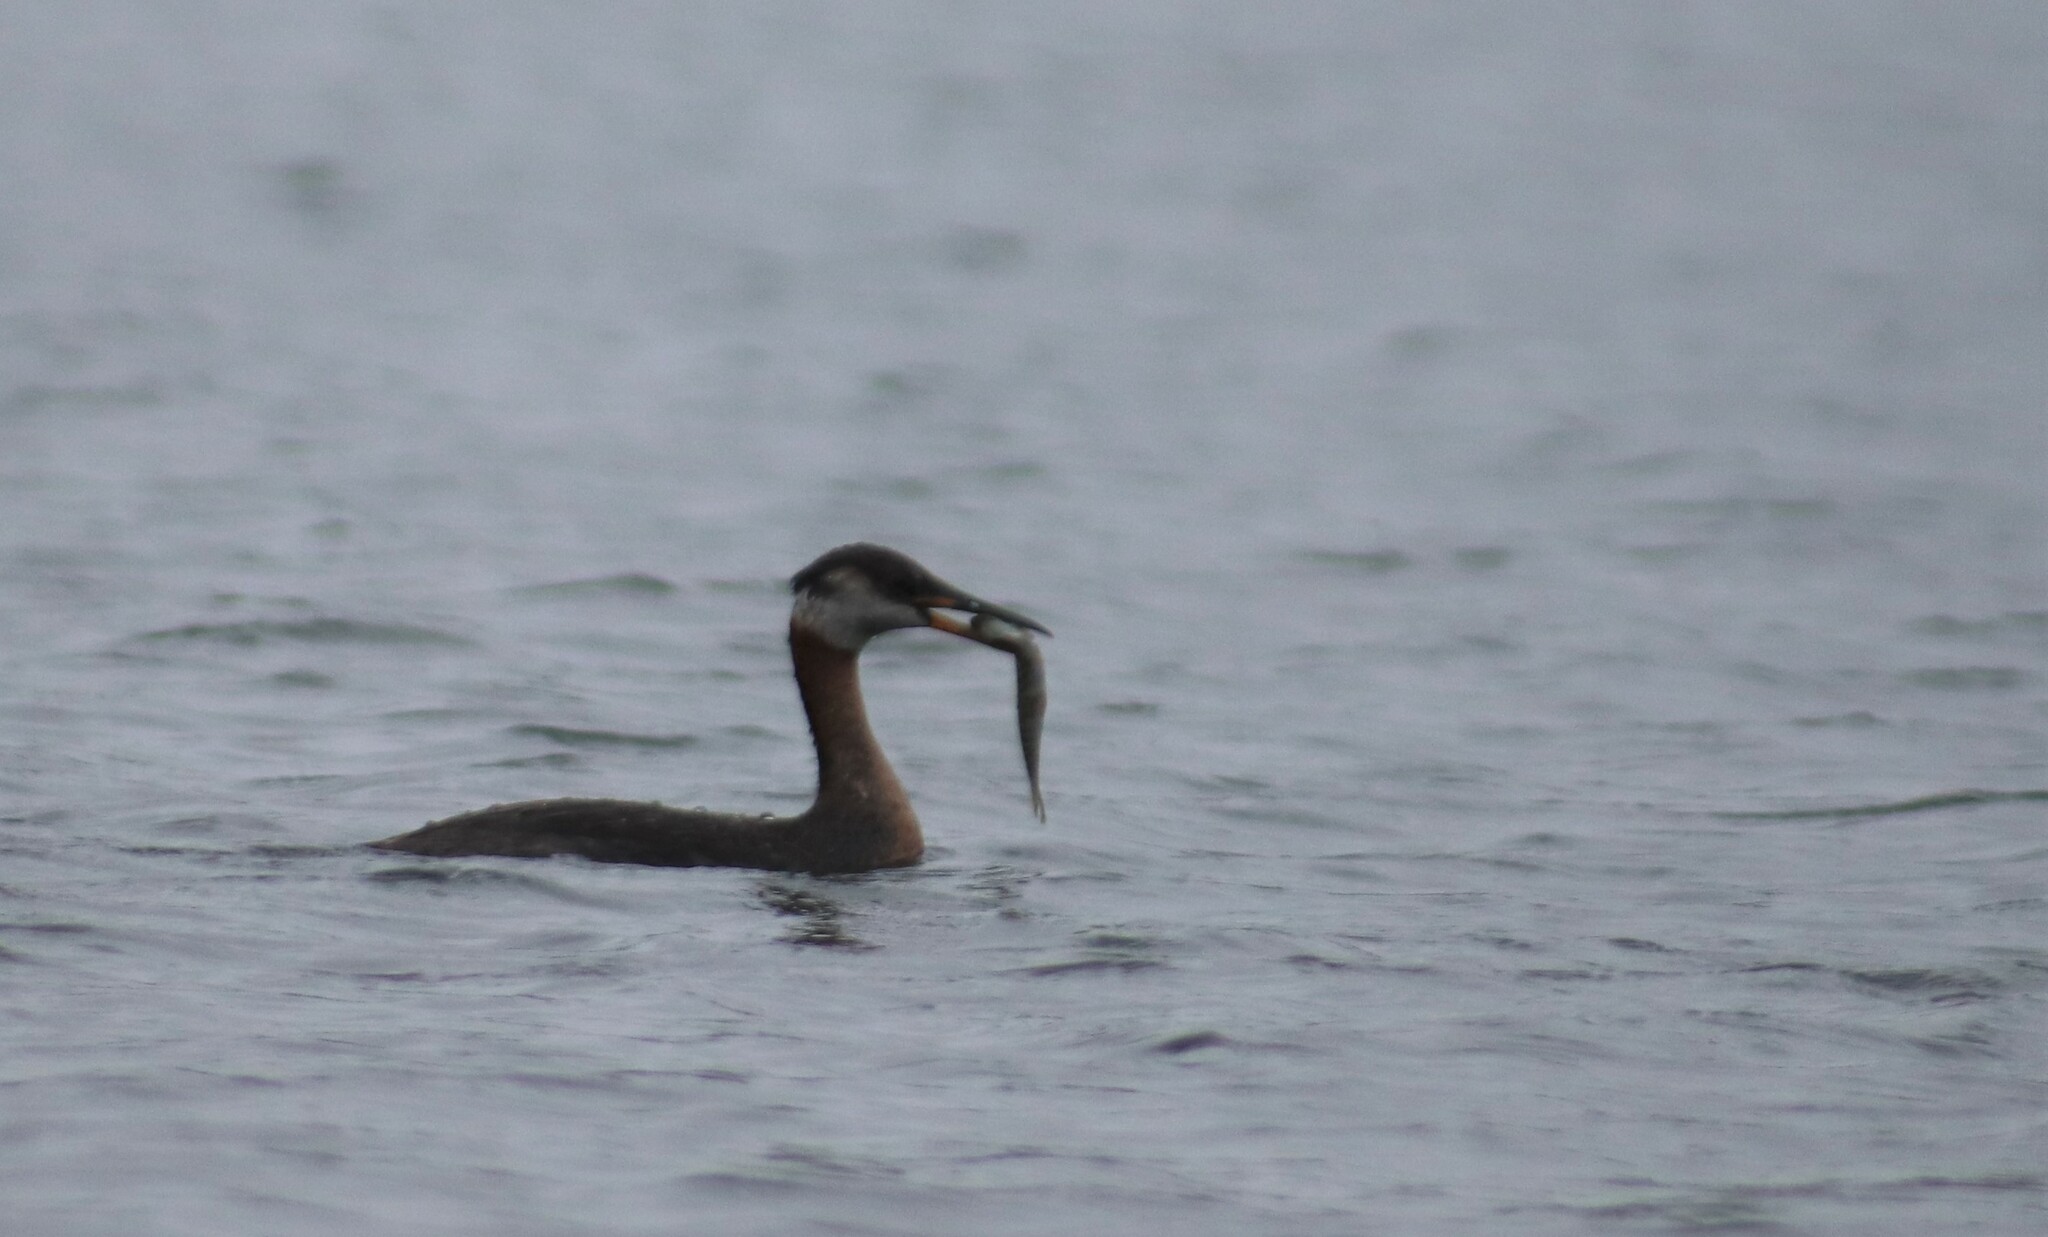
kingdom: Animalia
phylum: Chordata
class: Aves
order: Podicipediformes
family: Podicipedidae
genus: Podiceps
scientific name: Podiceps grisegena
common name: Red-necked grebe
